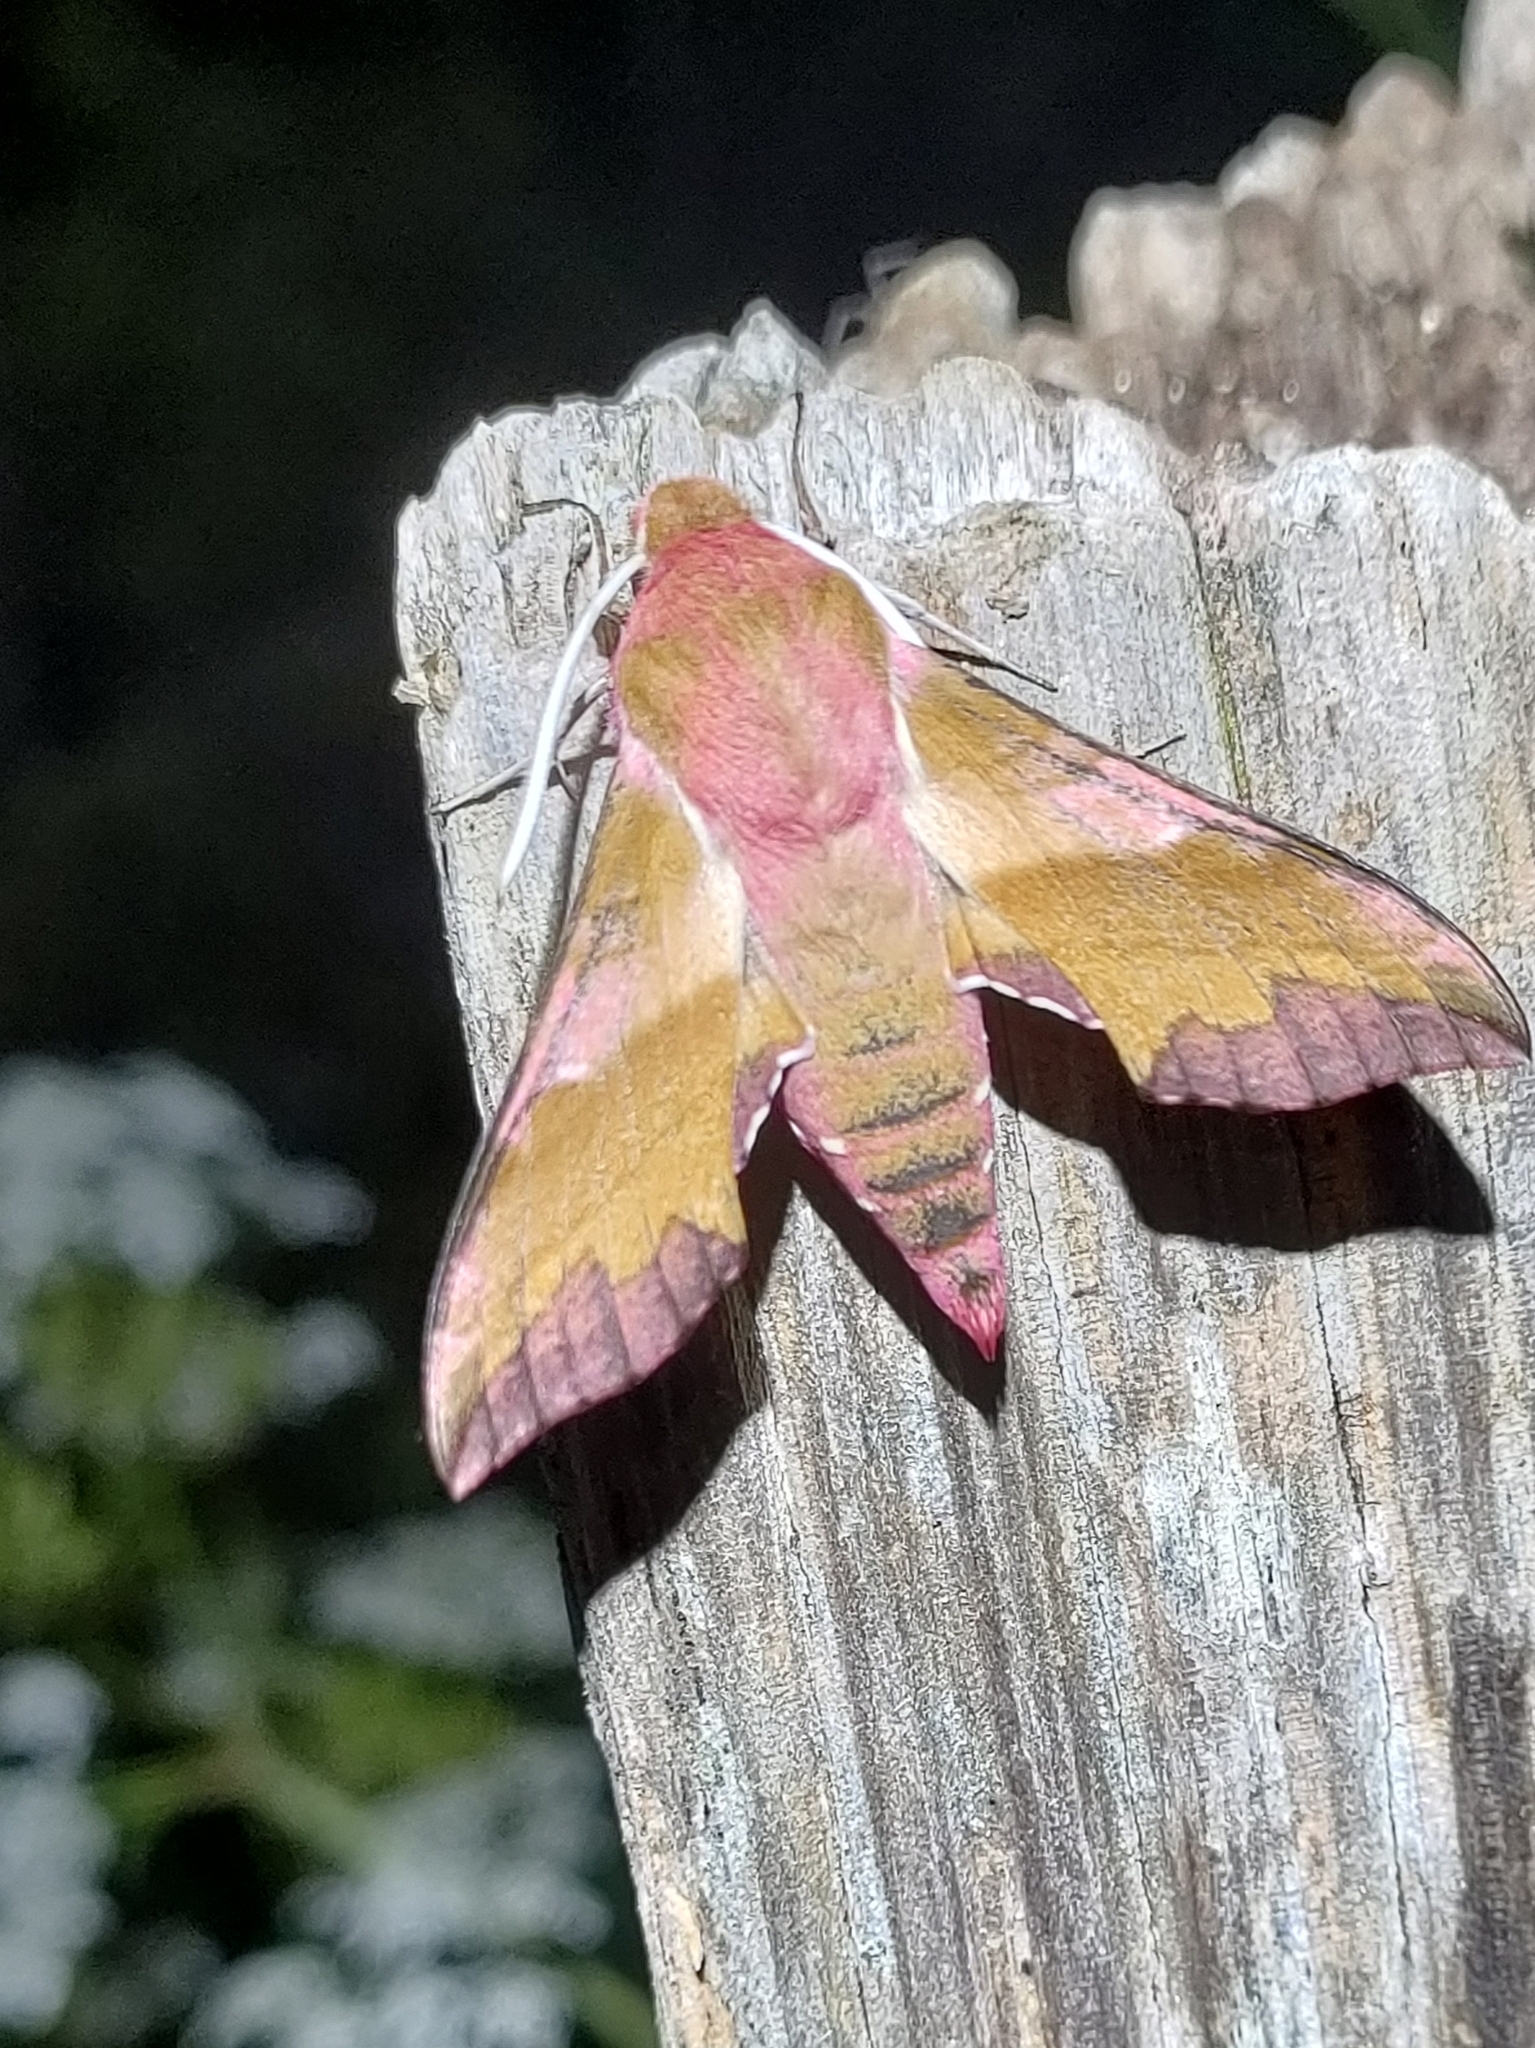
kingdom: Animalia
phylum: Arthropoda
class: Insecta
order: Lepidoptera
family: Sphingidae
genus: Deilephila
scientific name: Deilephila porcellus
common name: Small elephant hawk-moth
